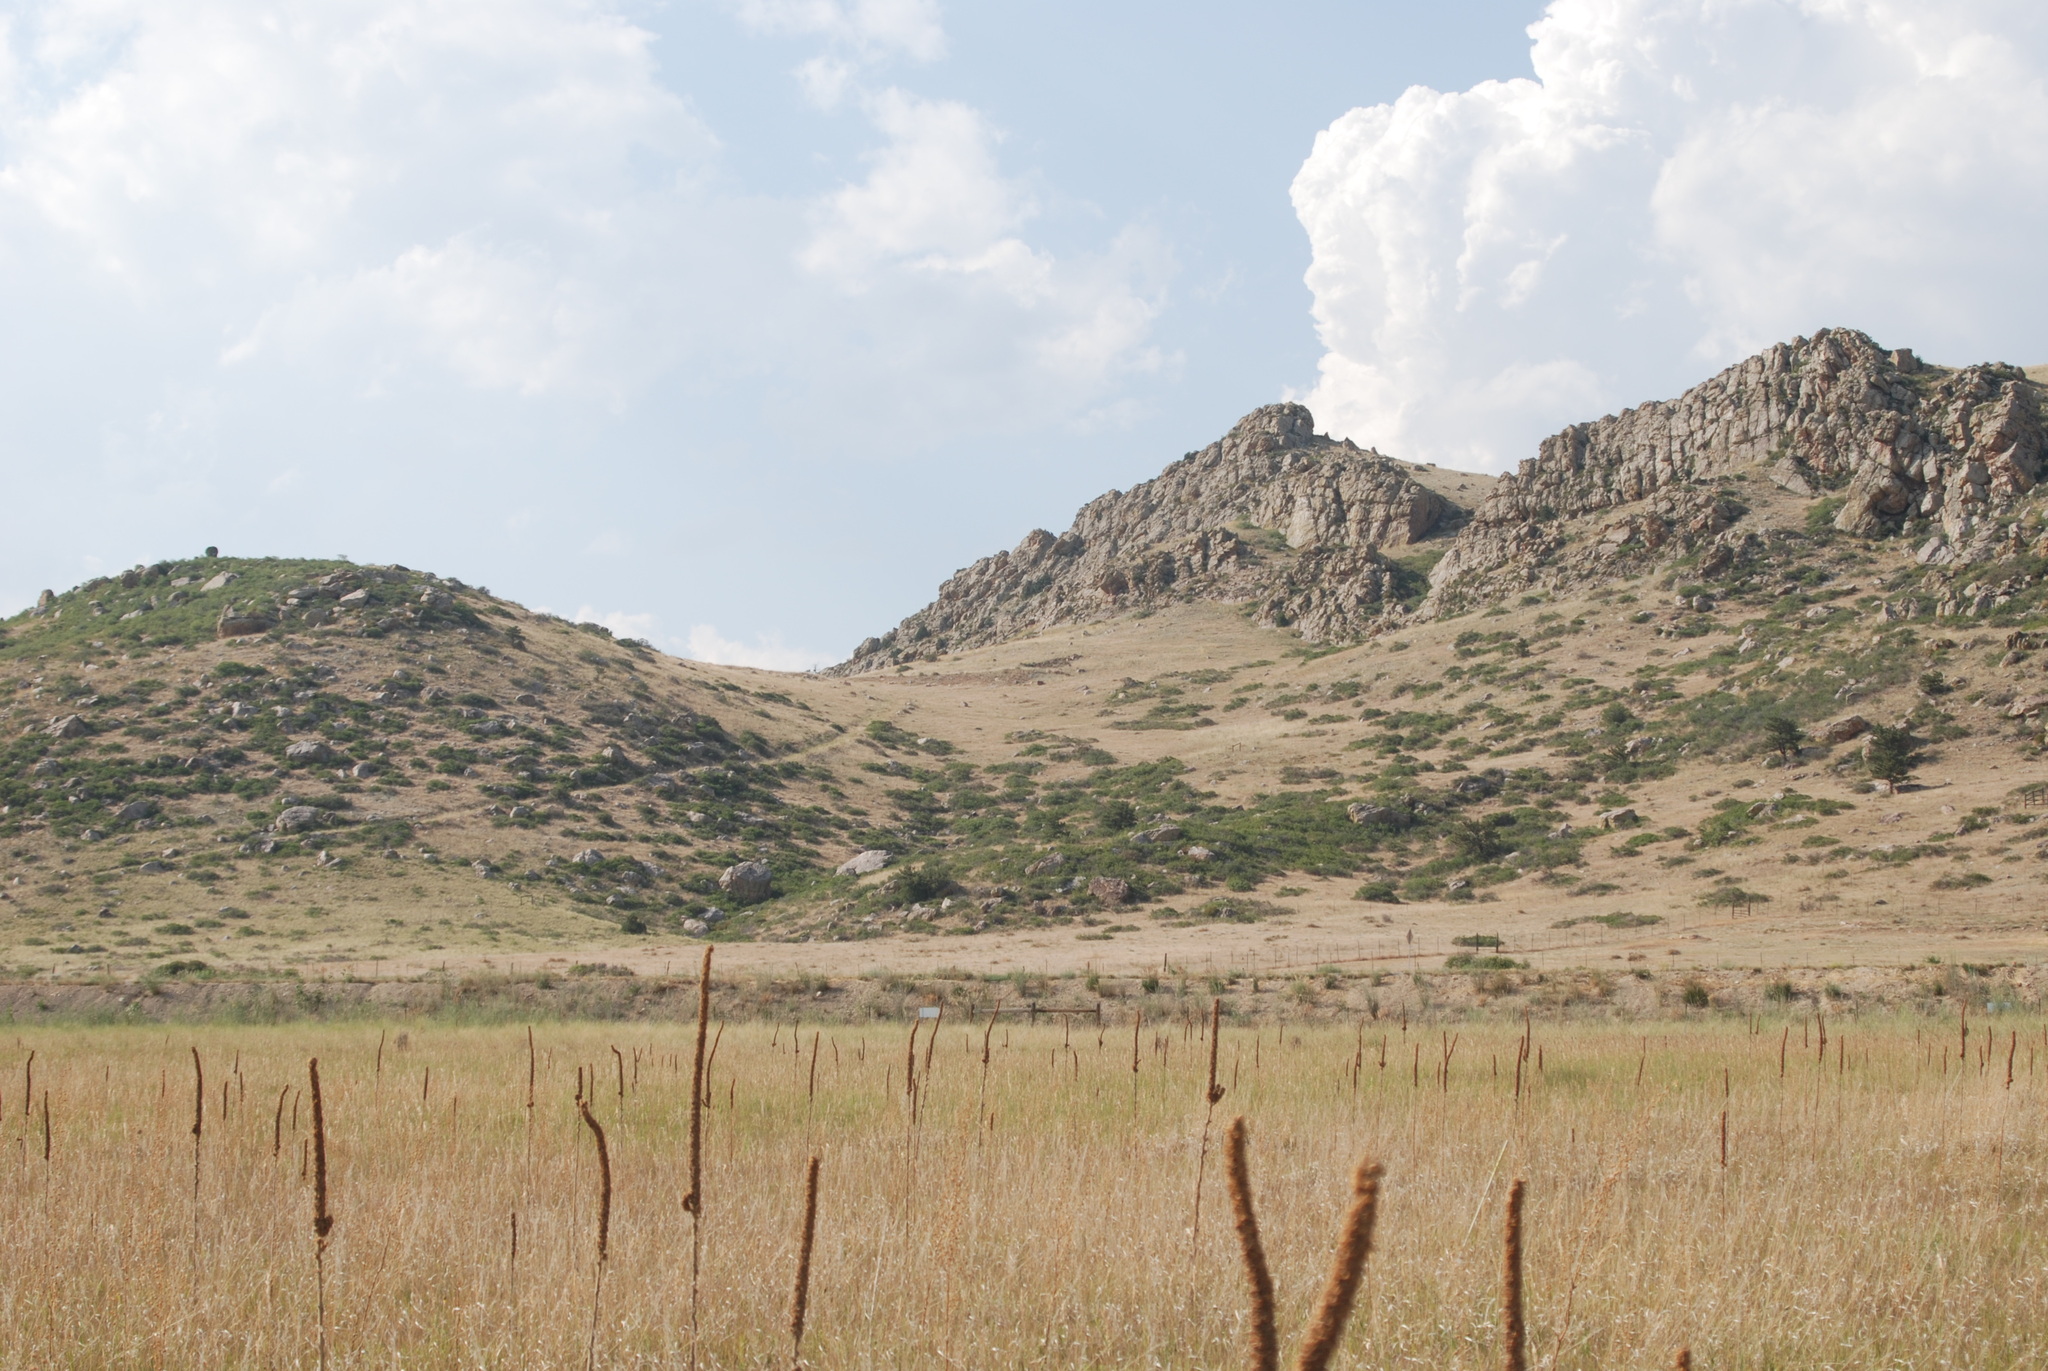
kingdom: Plantae
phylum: Tracheophyta
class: Magnoliopsida
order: Lamiales
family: Scrophulariaceae
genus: Verbascum
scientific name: Verbascum thapsus
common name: Common mullein
